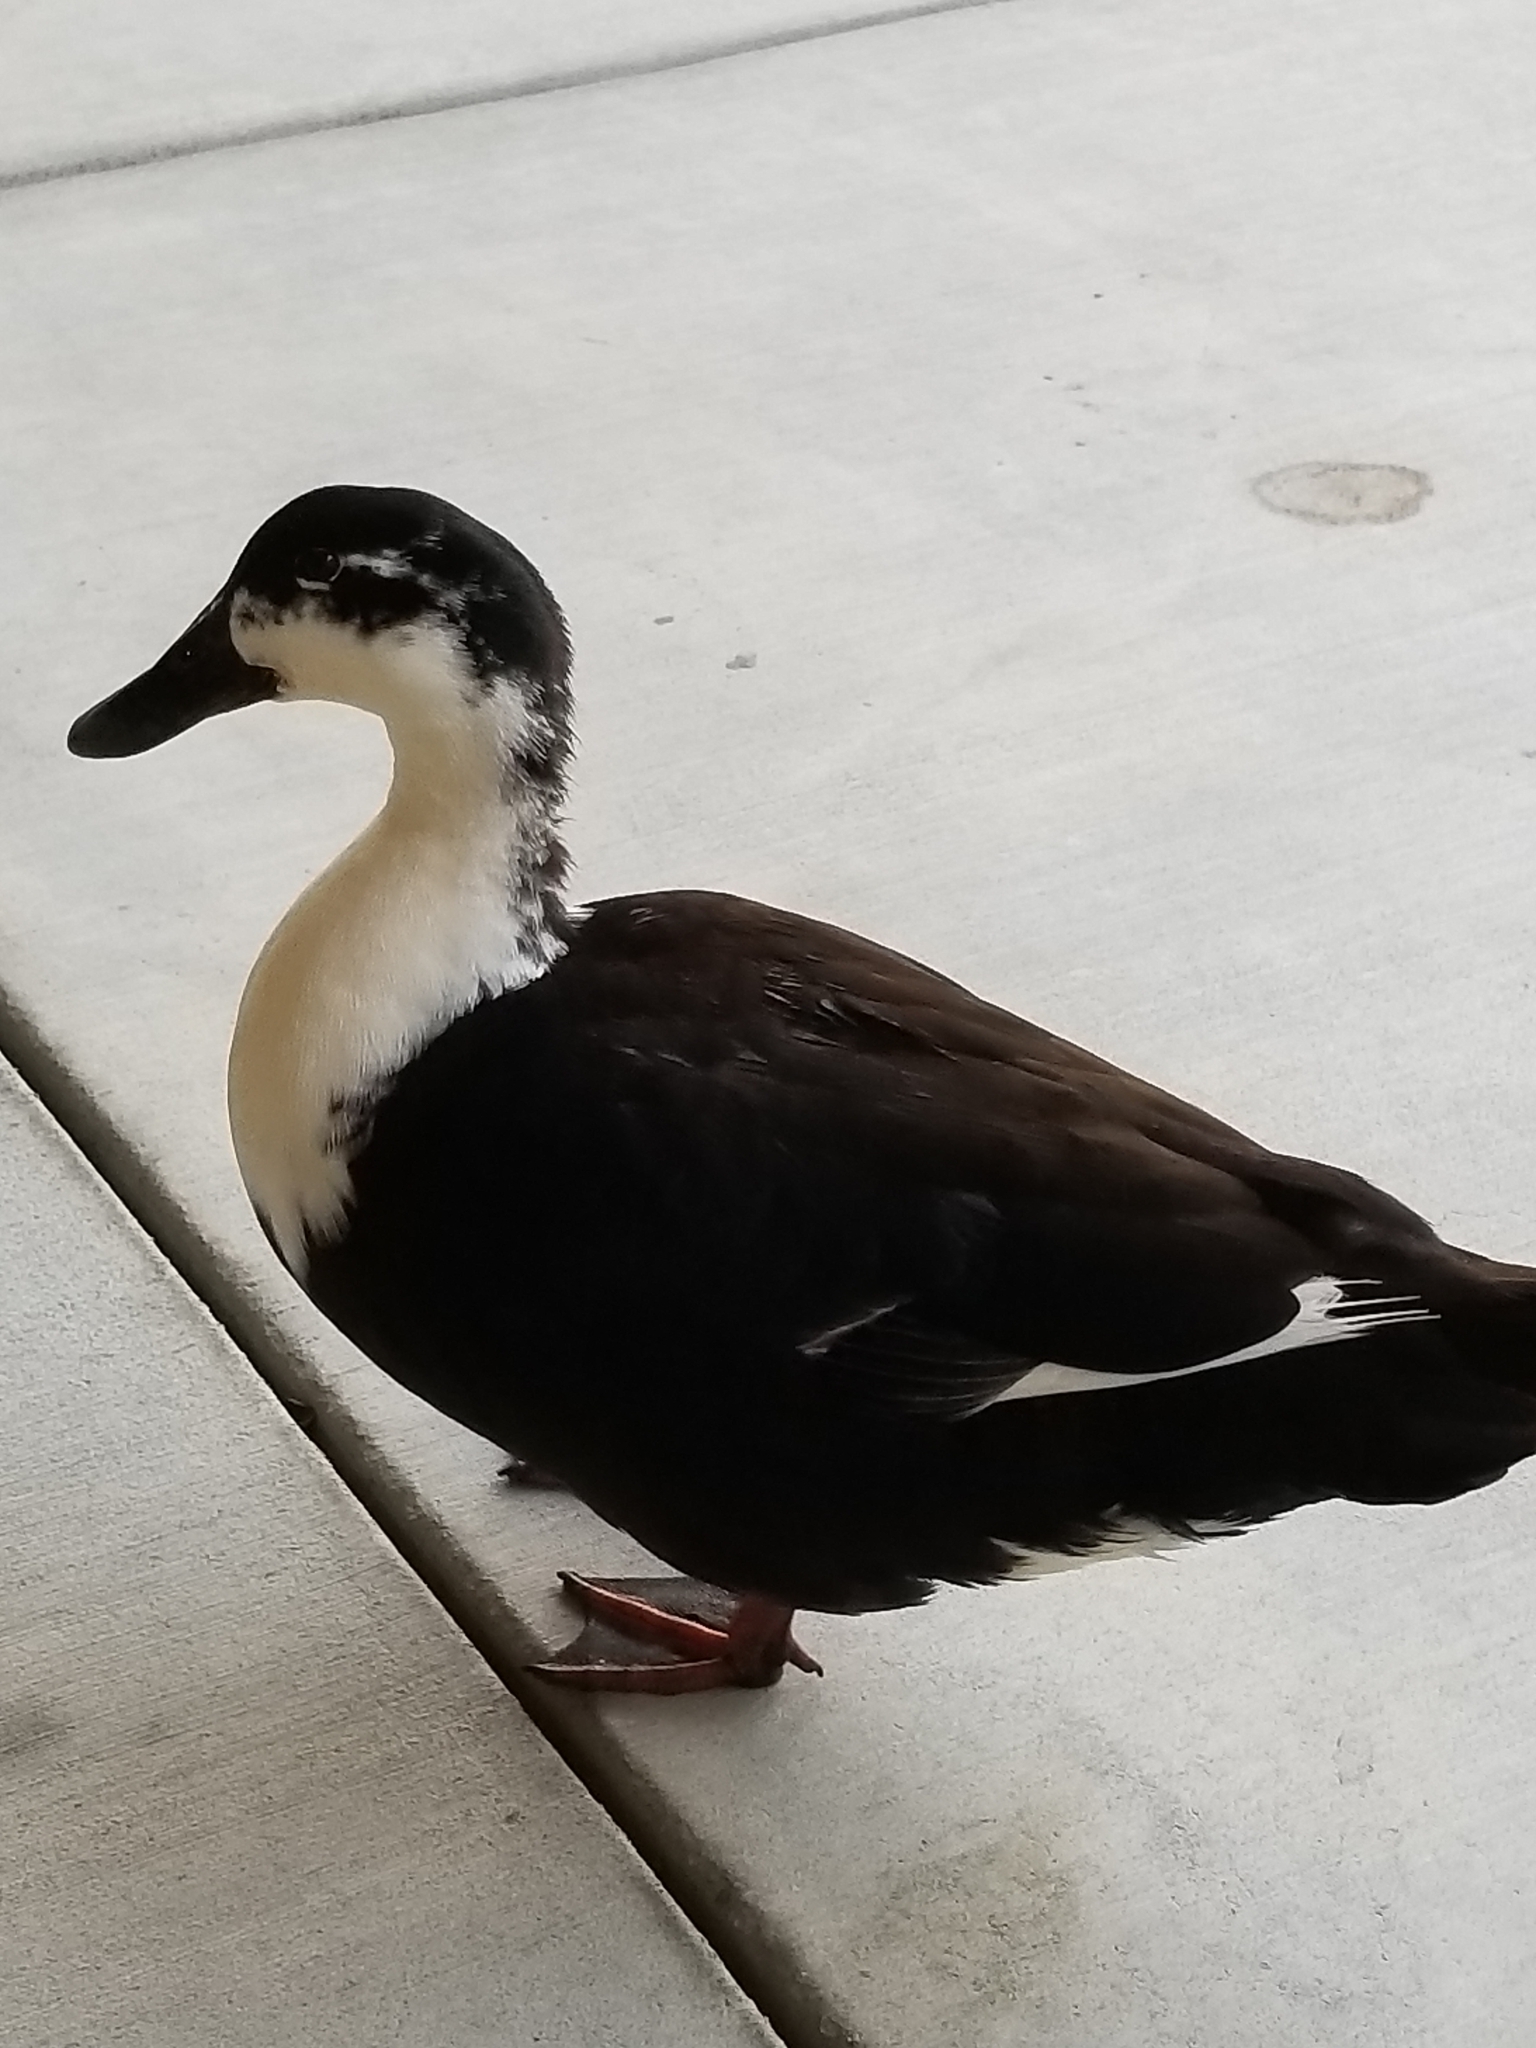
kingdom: Animalia
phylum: Chordata
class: Aves
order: Anseriformes
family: Anatidae
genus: Anas
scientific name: Anas platyrhynchos
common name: Mallard
